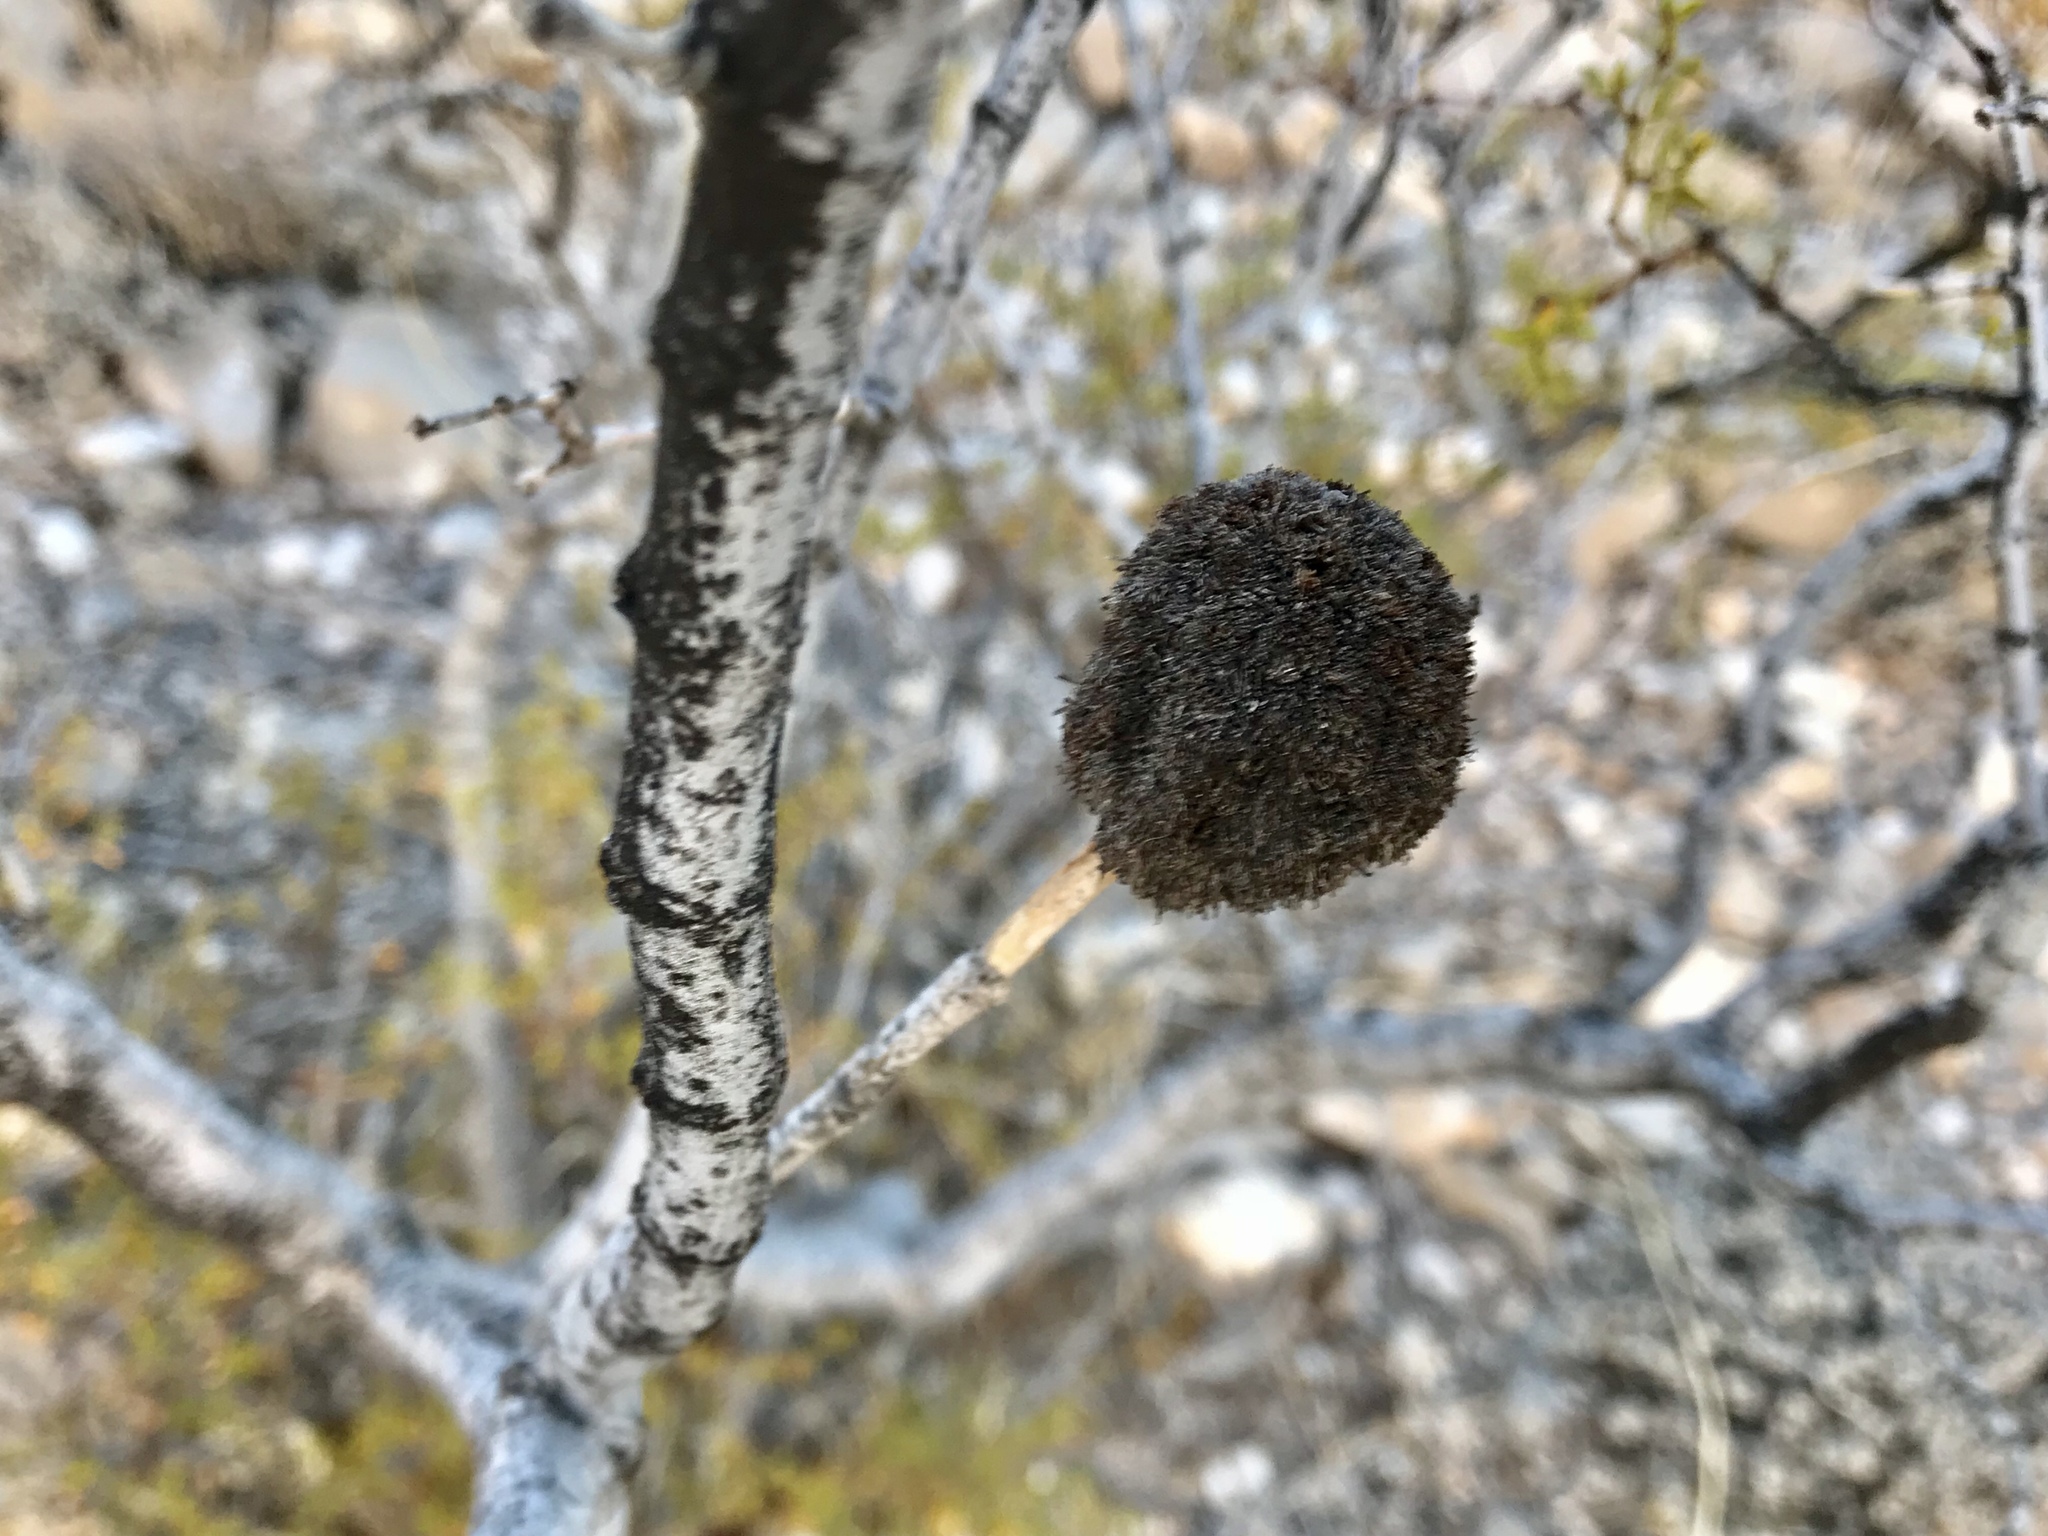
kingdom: Animalia
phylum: Arthropoda
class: Insecta
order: Diptera
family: Cecidomyiidae
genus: Asphondylia
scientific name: Asphondylia auripila
